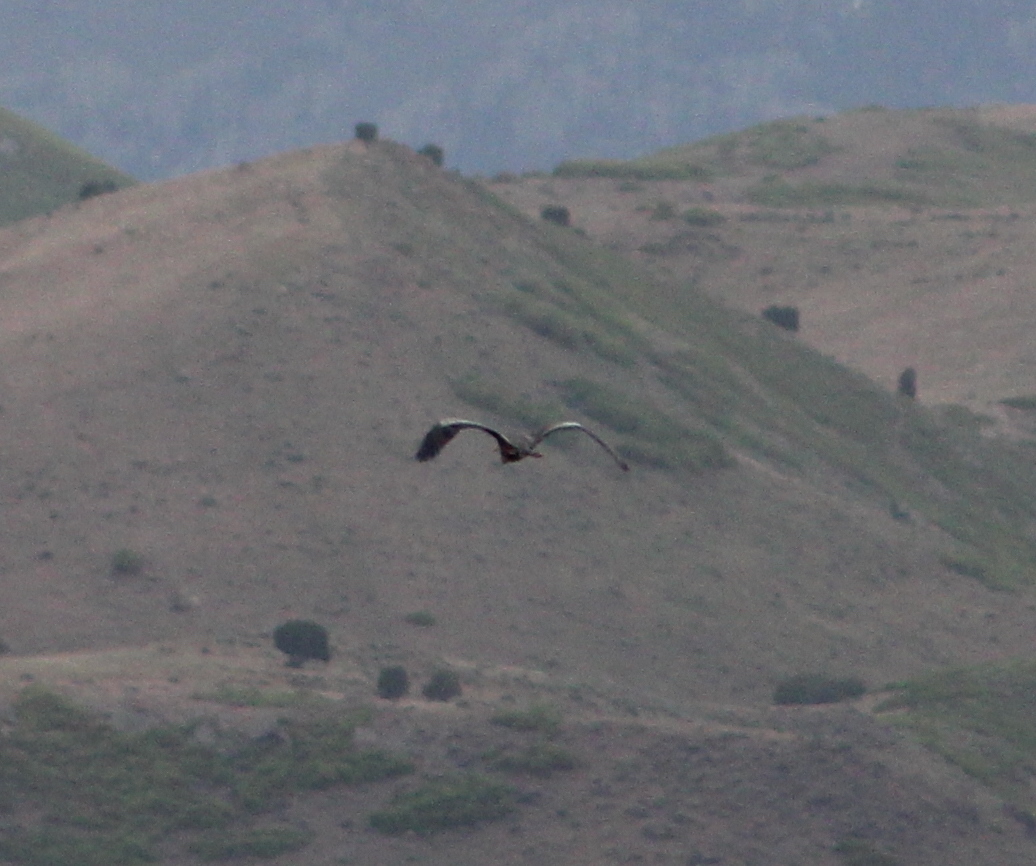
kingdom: Animalia
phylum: Chordata
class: Aves
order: Pelecaniformes
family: Ardeidae
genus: Ardea
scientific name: Ardea herodias
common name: Great blue heron
